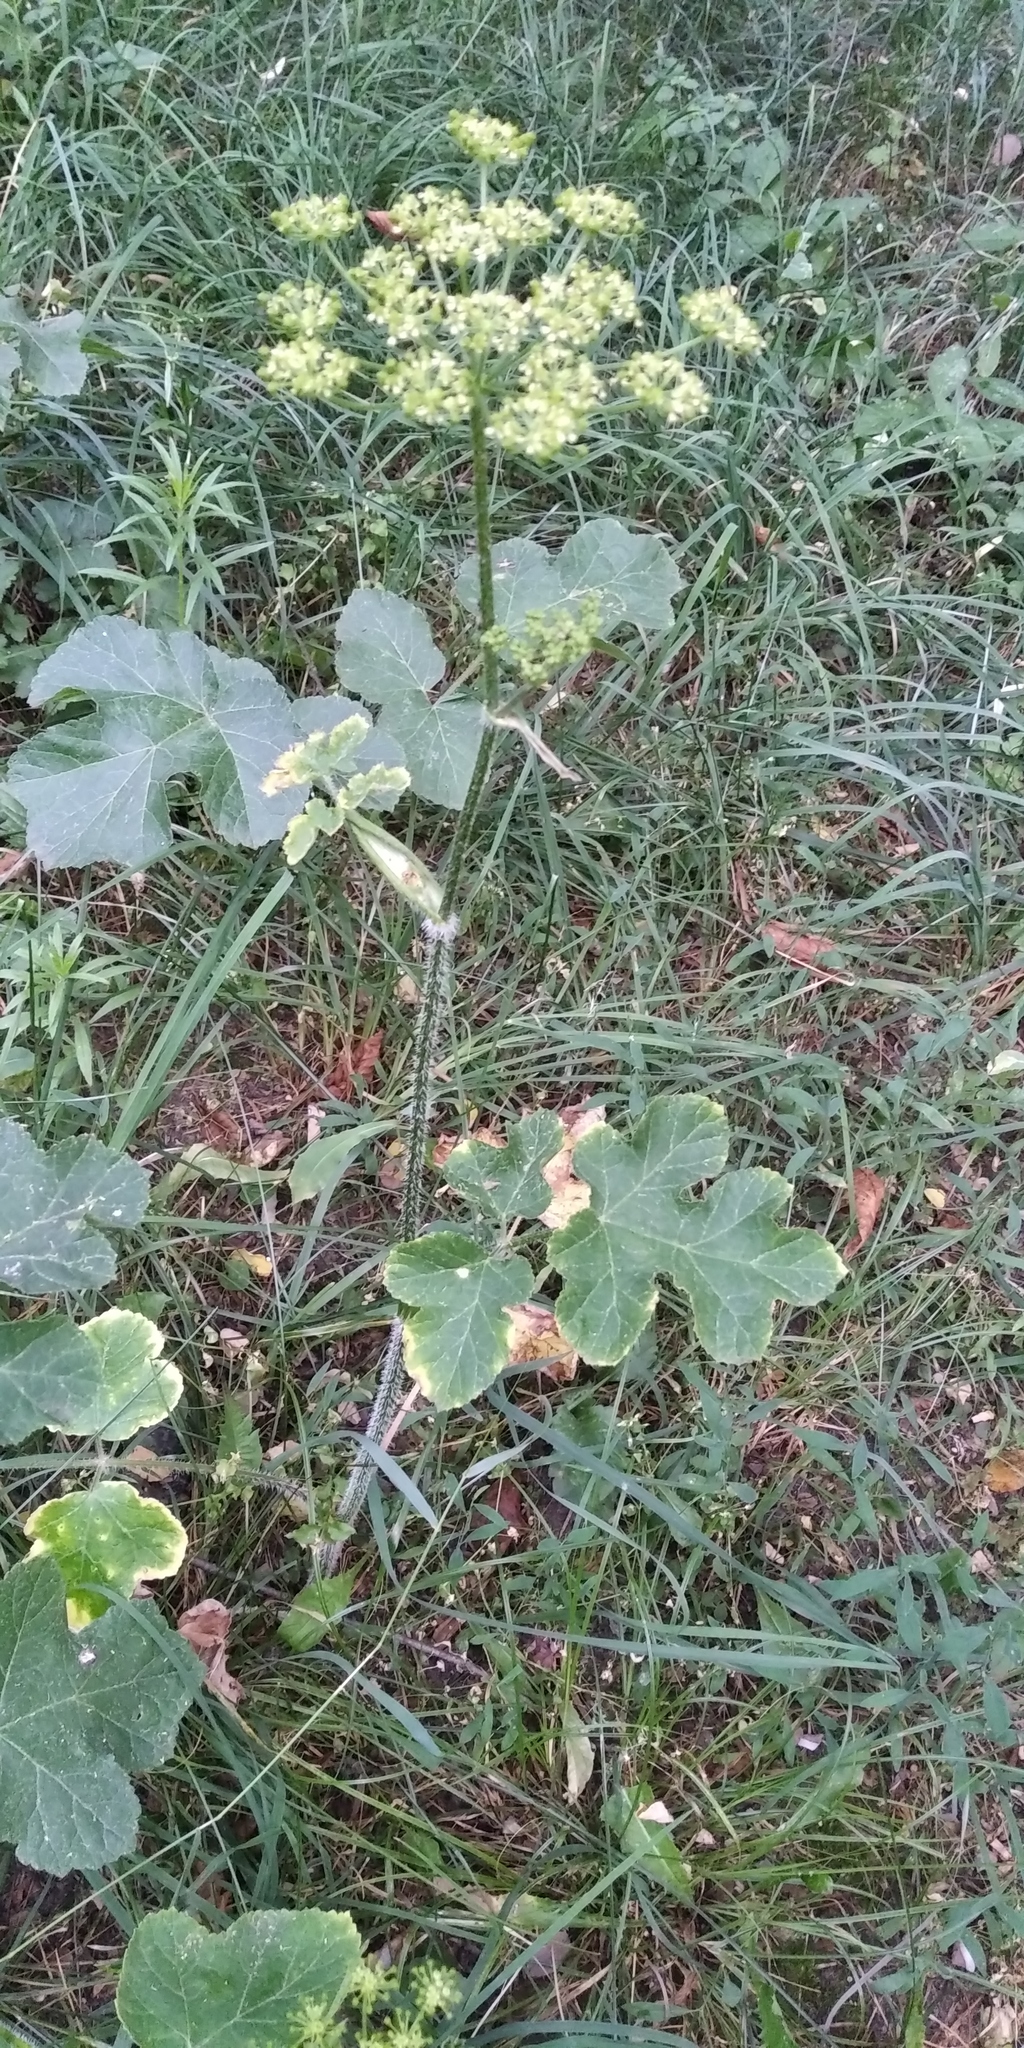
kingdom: Plantae
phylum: Tracheophyta
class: Magnoliopsida
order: Apiales
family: Apiaceae
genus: Heracleum
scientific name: Heracleum sphondylium
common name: Hogweed
